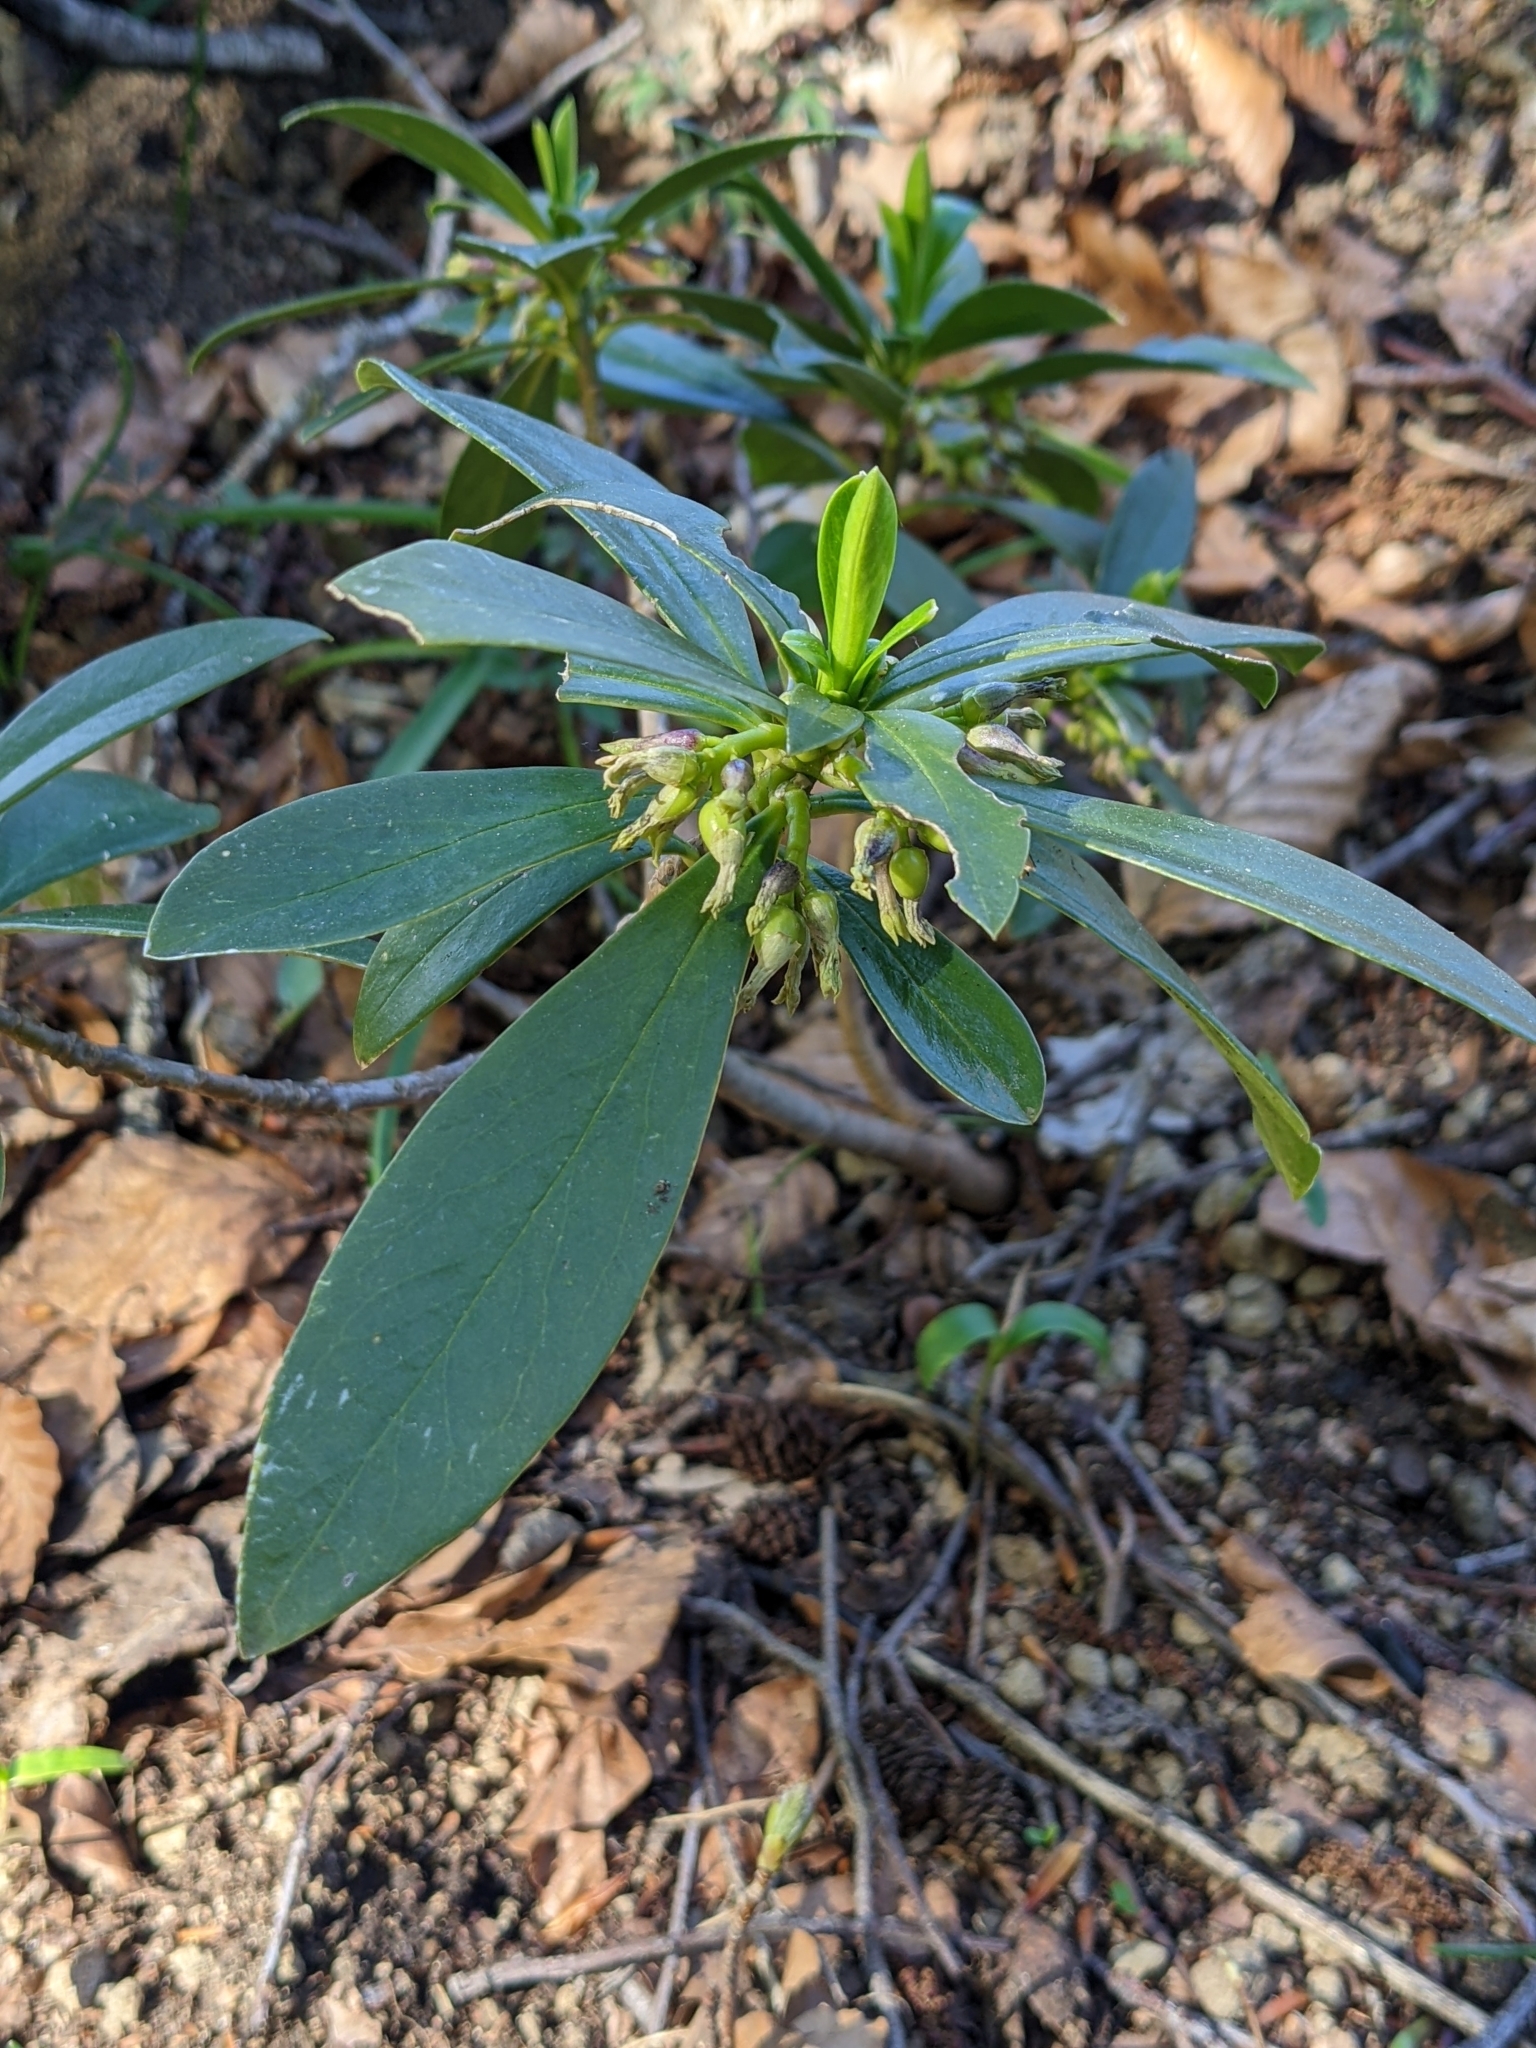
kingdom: Plantae
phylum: Tracheophyta
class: Magnoliopsida
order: Malvales
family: Thymelaeaceae
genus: Daphne
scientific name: Daphne laureola
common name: Spurge-laurel
